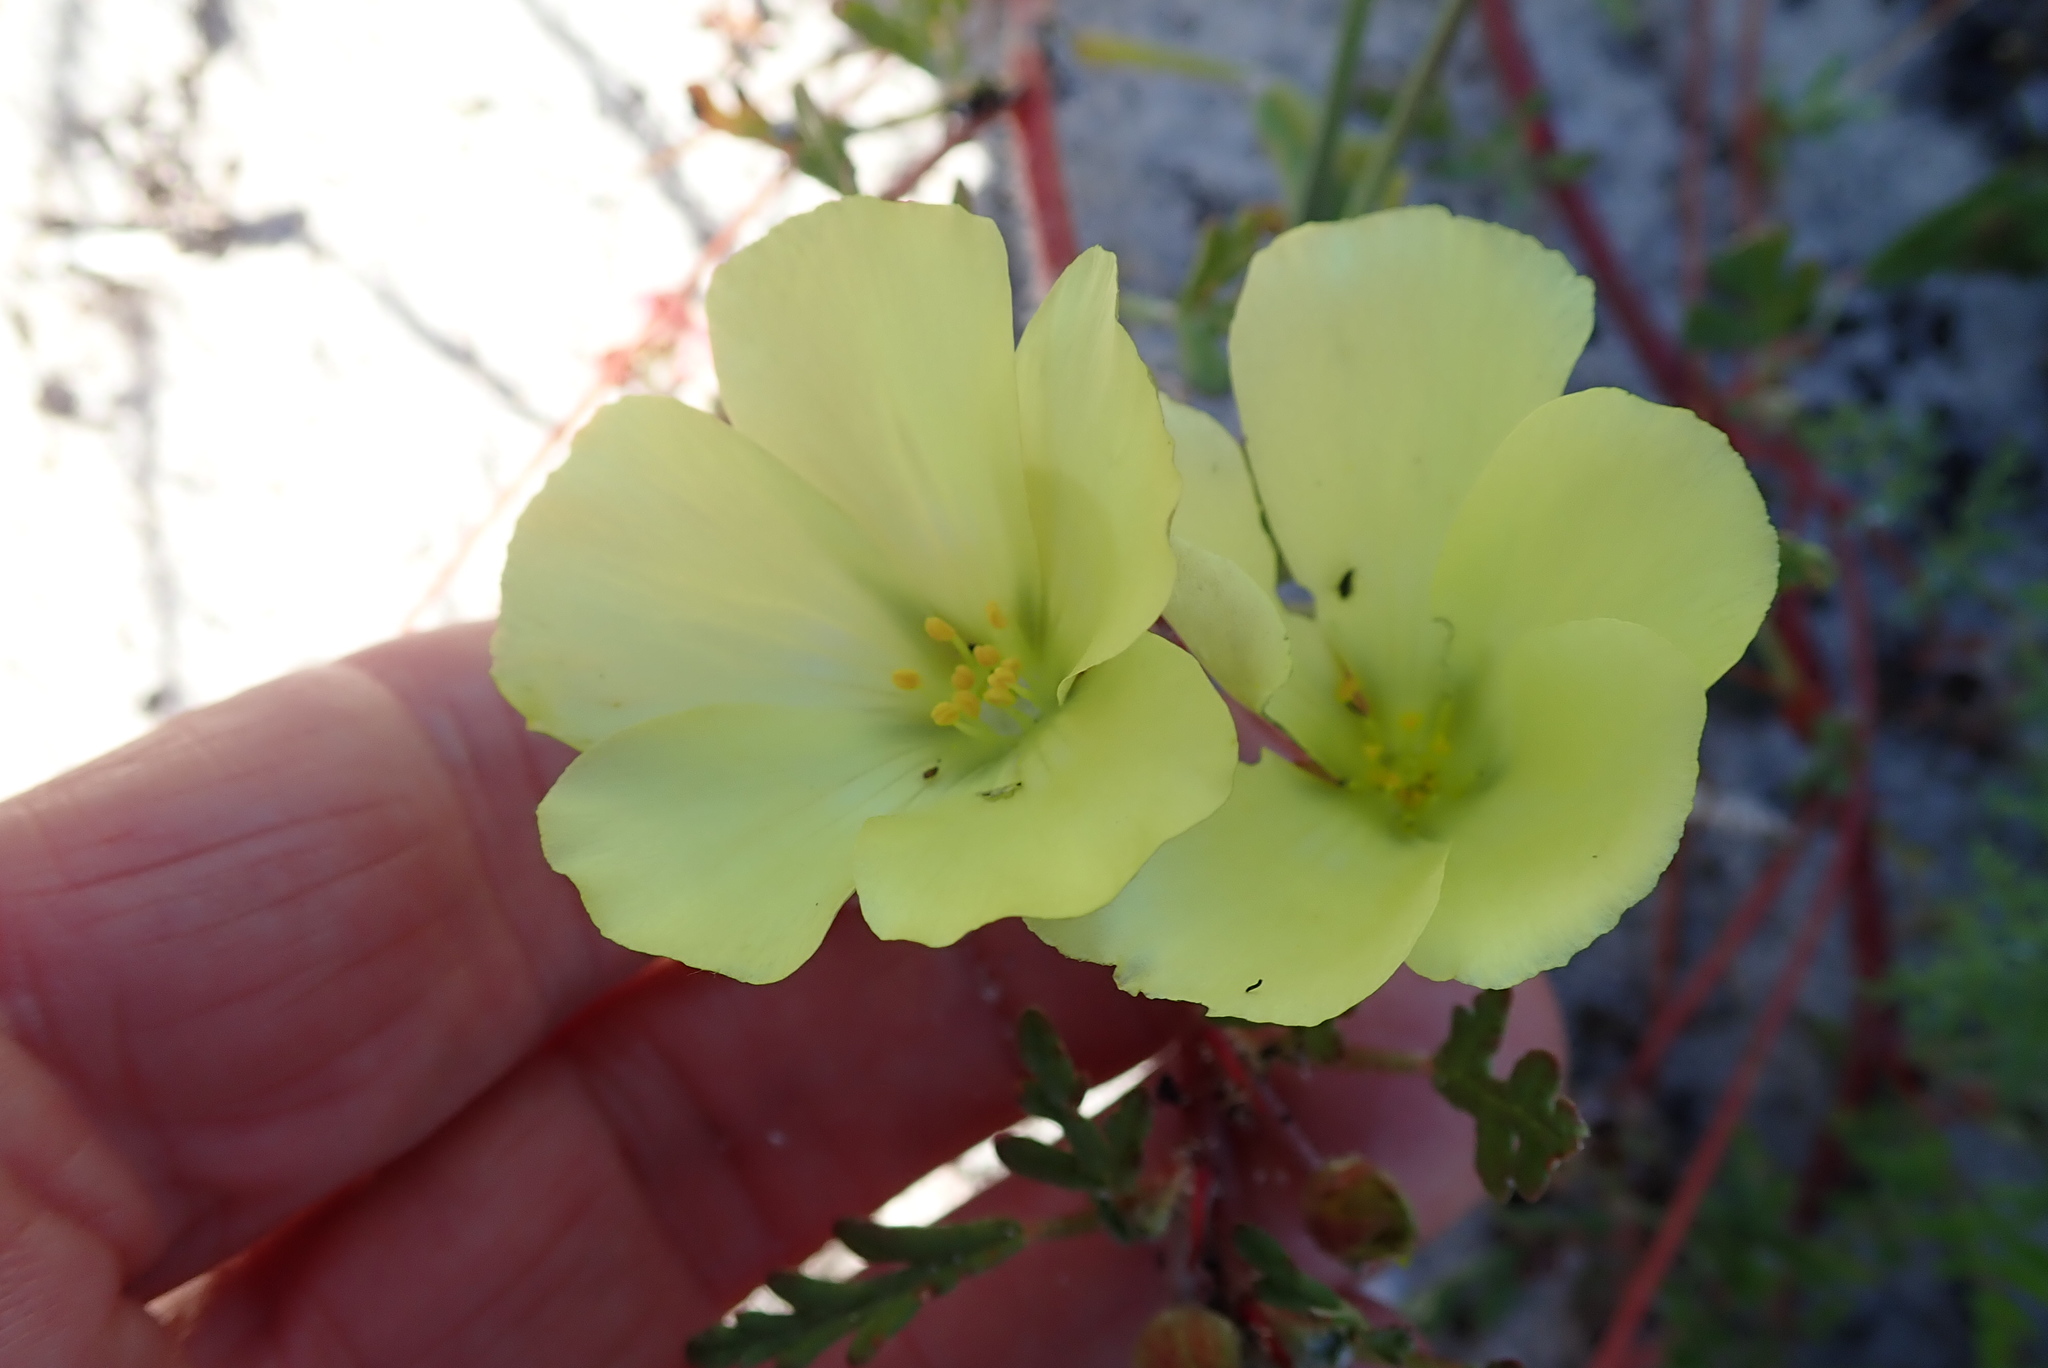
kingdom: Plantae
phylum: Tracheophyta
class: Magnoliopsida
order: Malvales
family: Neuradaceae
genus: Grielum
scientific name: Grielum humifusum
